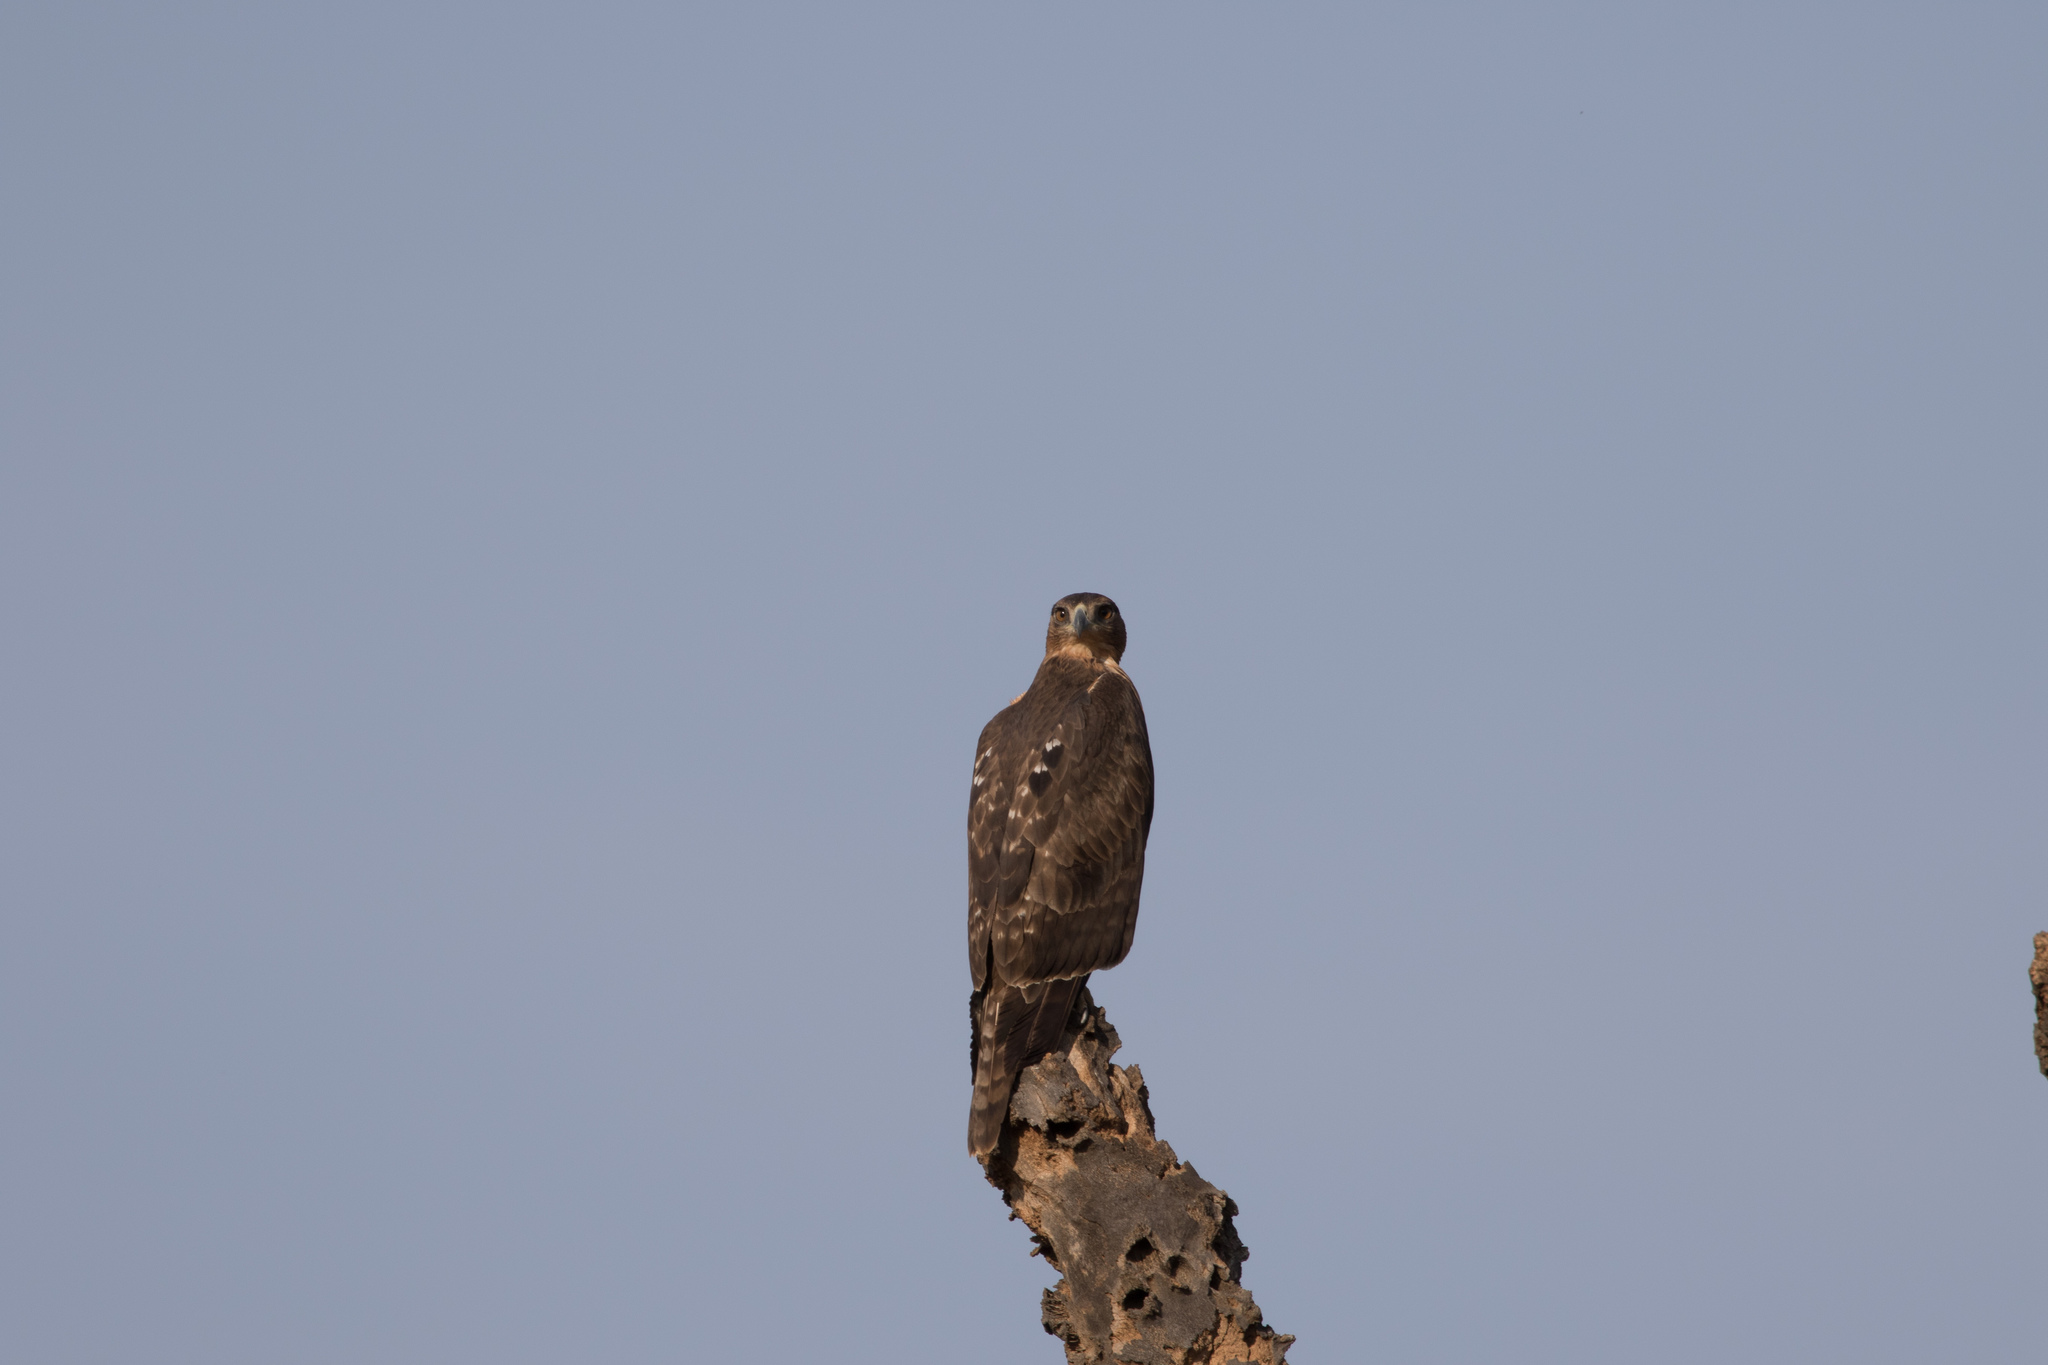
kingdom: Animalia
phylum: Chordata
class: Aves
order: Accipitriformes
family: Accipitridae
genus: Aquila
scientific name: Aquila spilogaster
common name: African hawk-eagle
